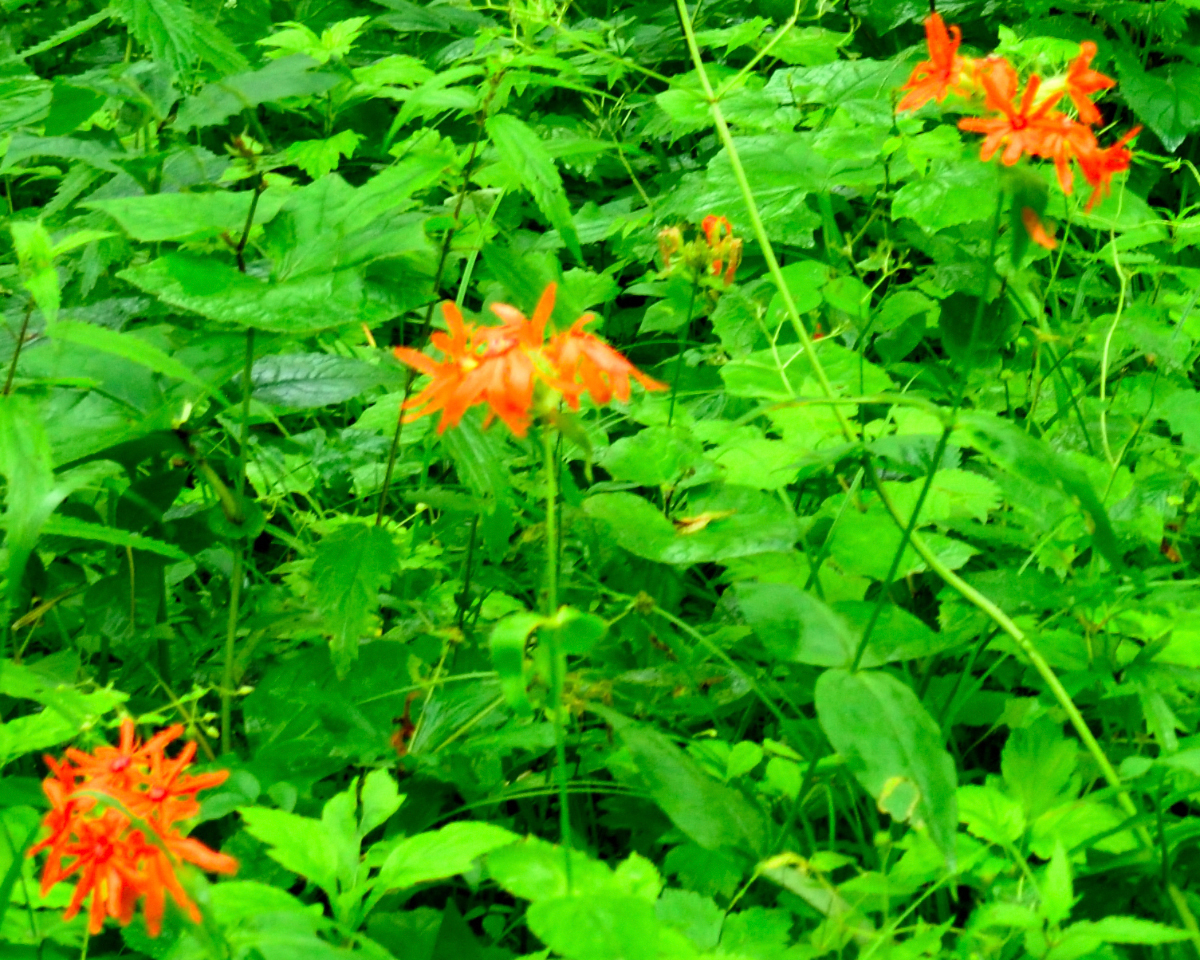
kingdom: Plantae
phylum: Tracheophyta
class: Magnoliopsida
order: Caryophyllales
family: Caryophyllaceae
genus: Silene
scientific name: Silene banksia
